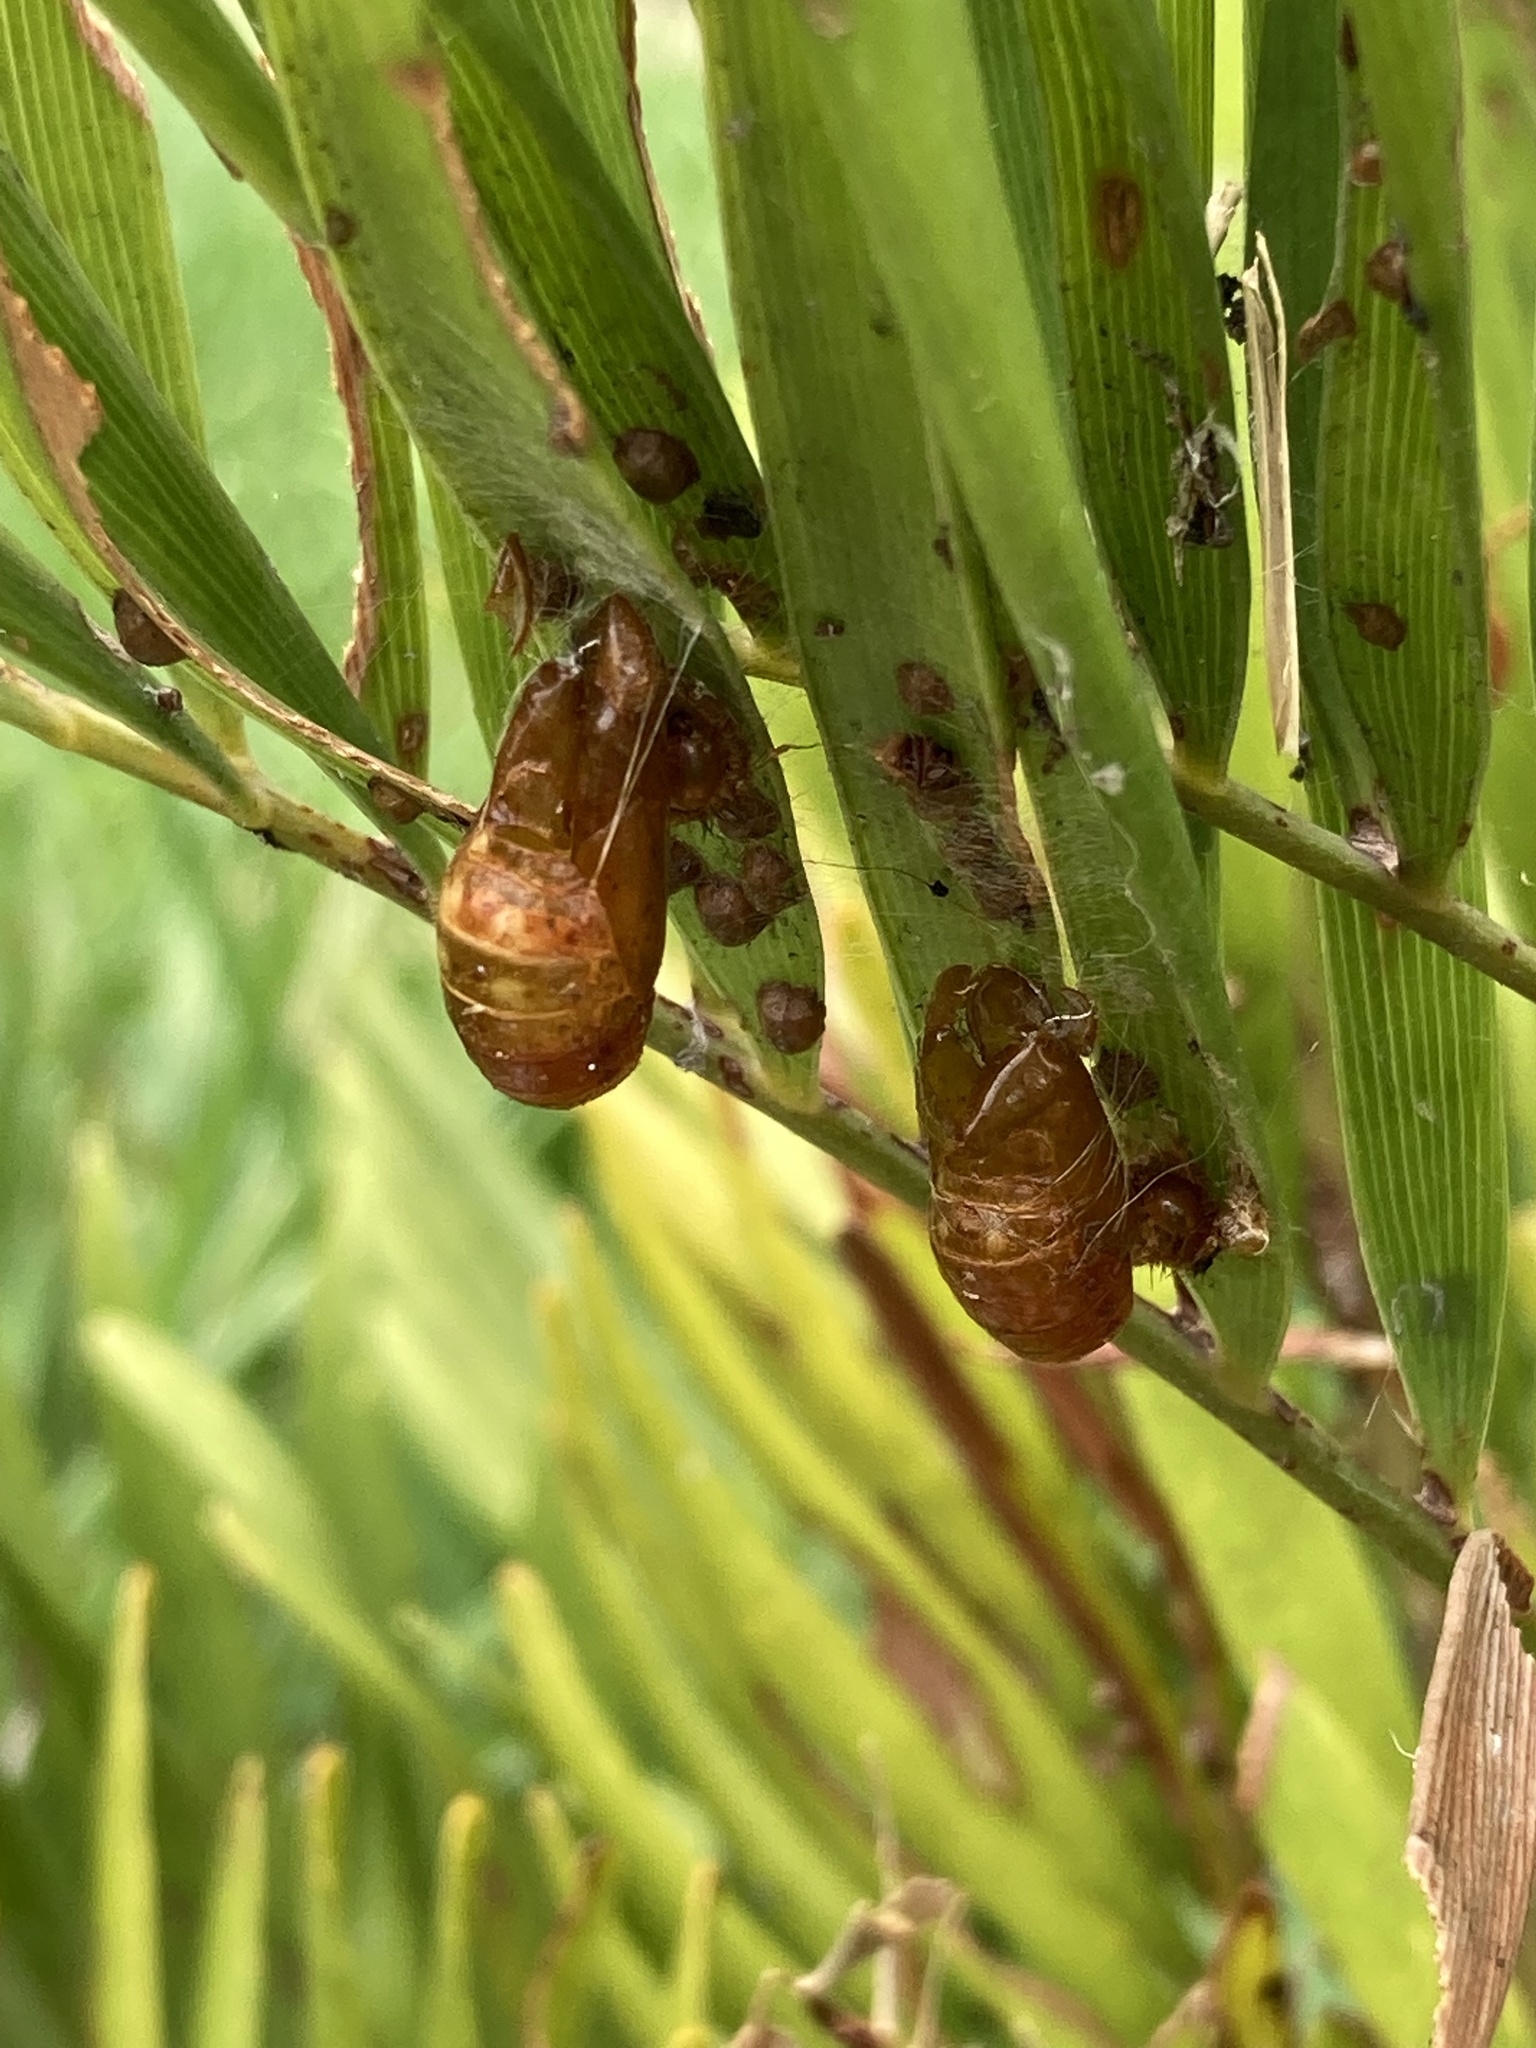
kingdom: Animalia
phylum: Arthropoda
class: Insecta
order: Lepidoptera
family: Lycaenidae
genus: Eumaeus
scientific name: Eumaeus atala
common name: Atala
